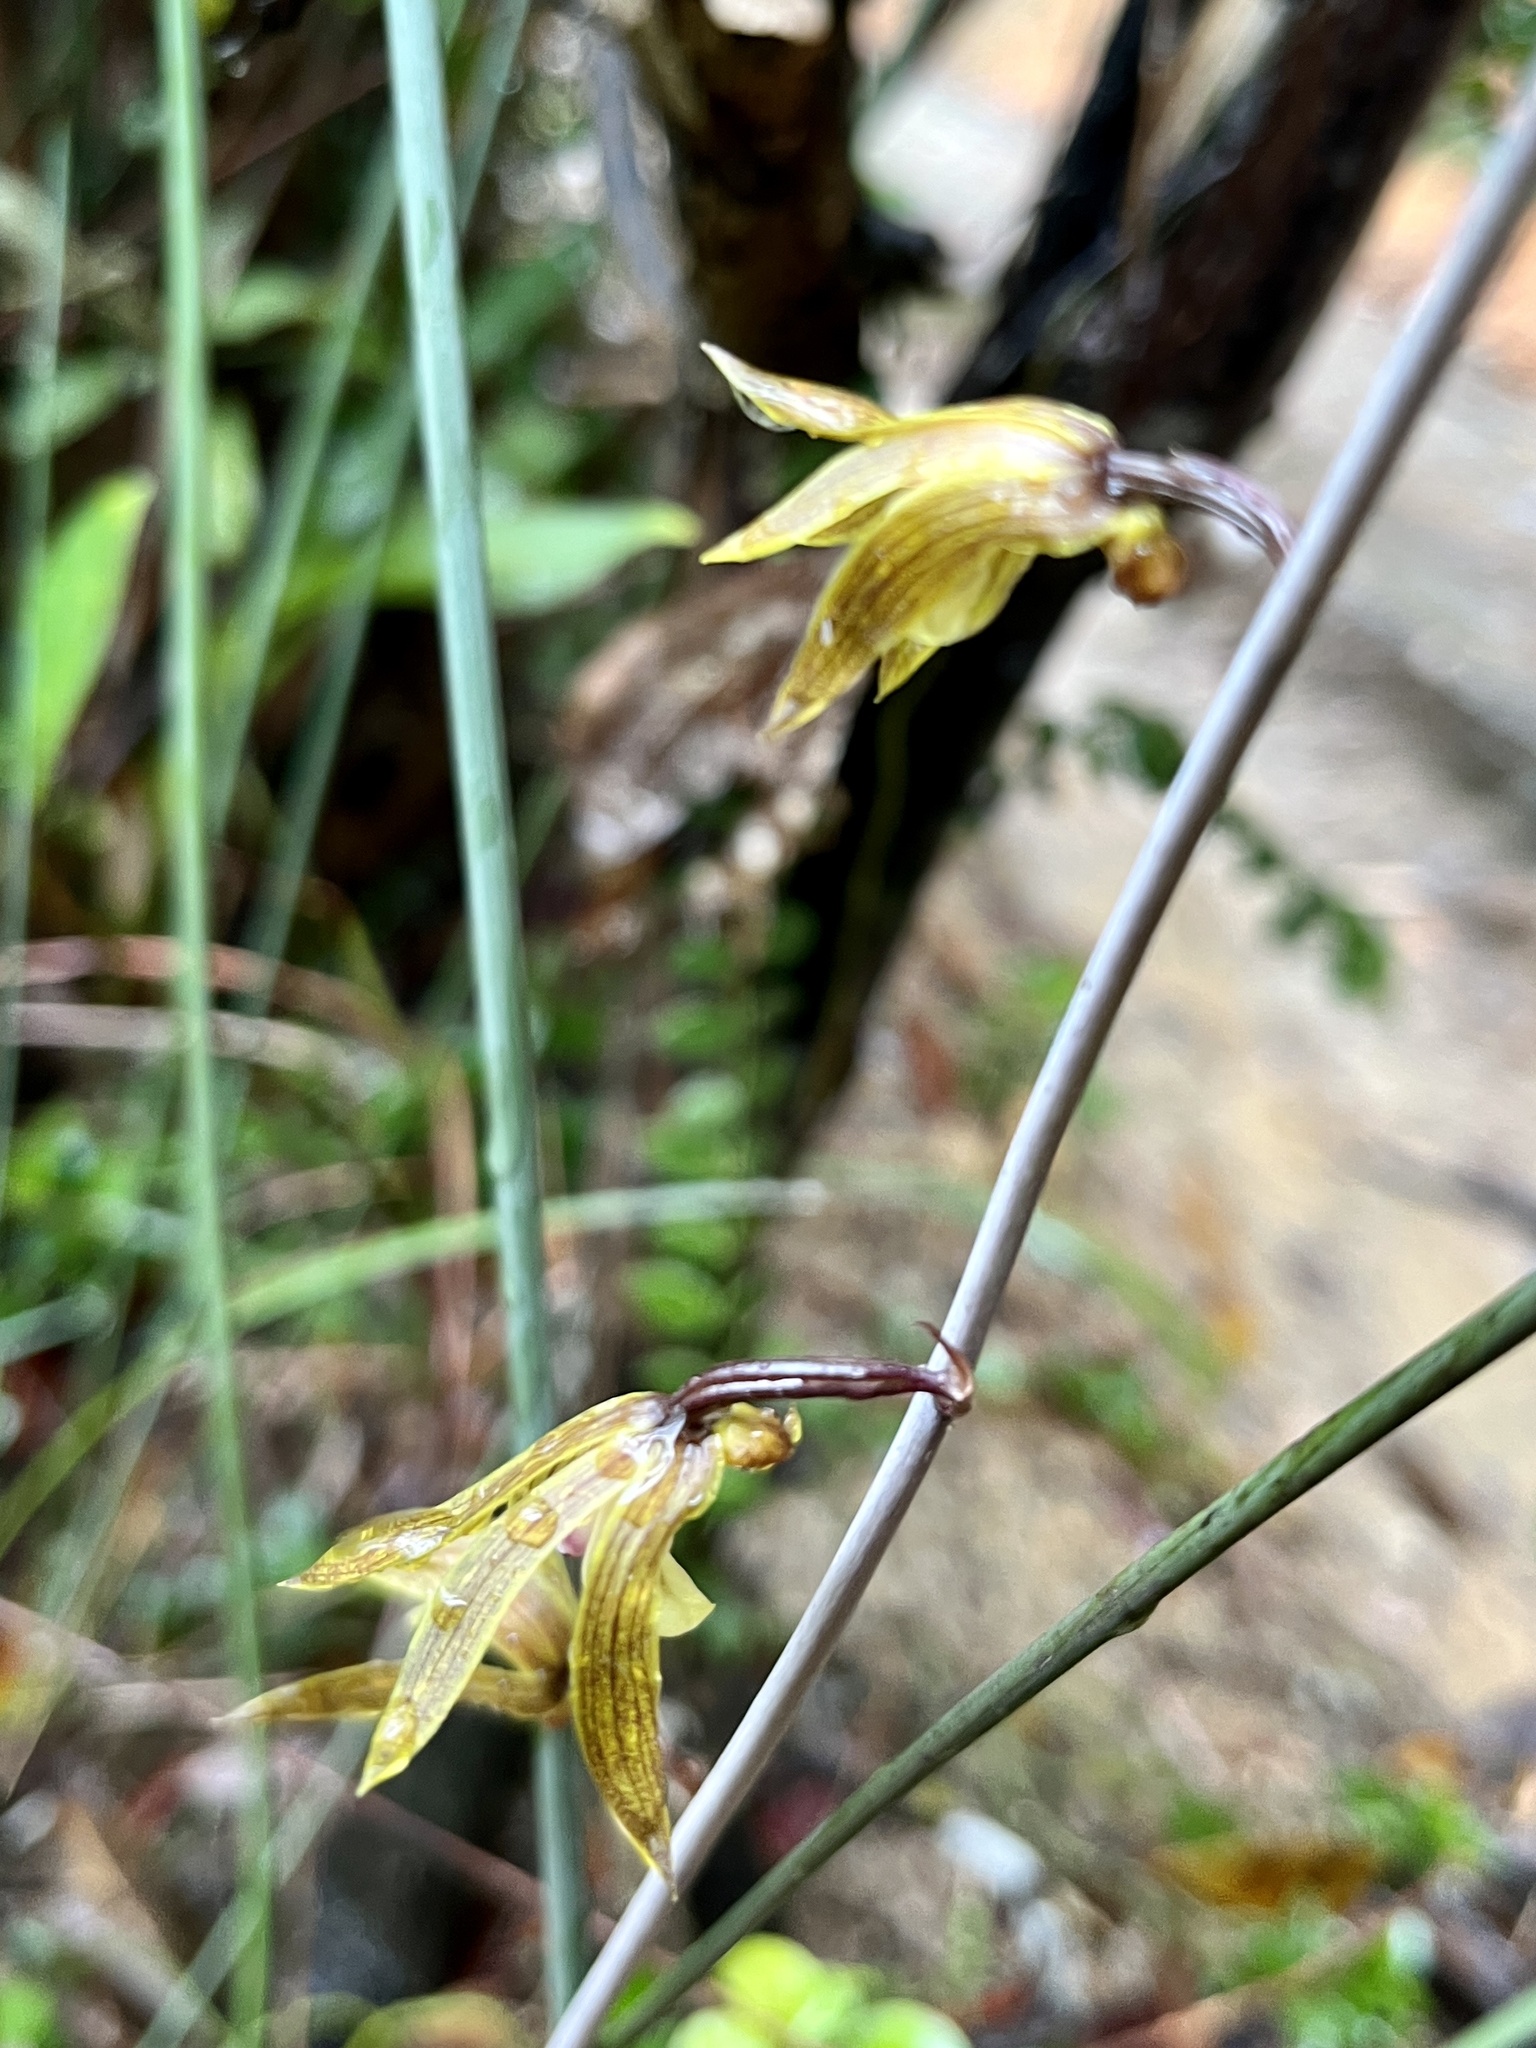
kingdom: Plantae
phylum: Tracheophyta
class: Liliopsida
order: Asparagales
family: Orchidaceae
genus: Ania
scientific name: Ania hongkongensis
